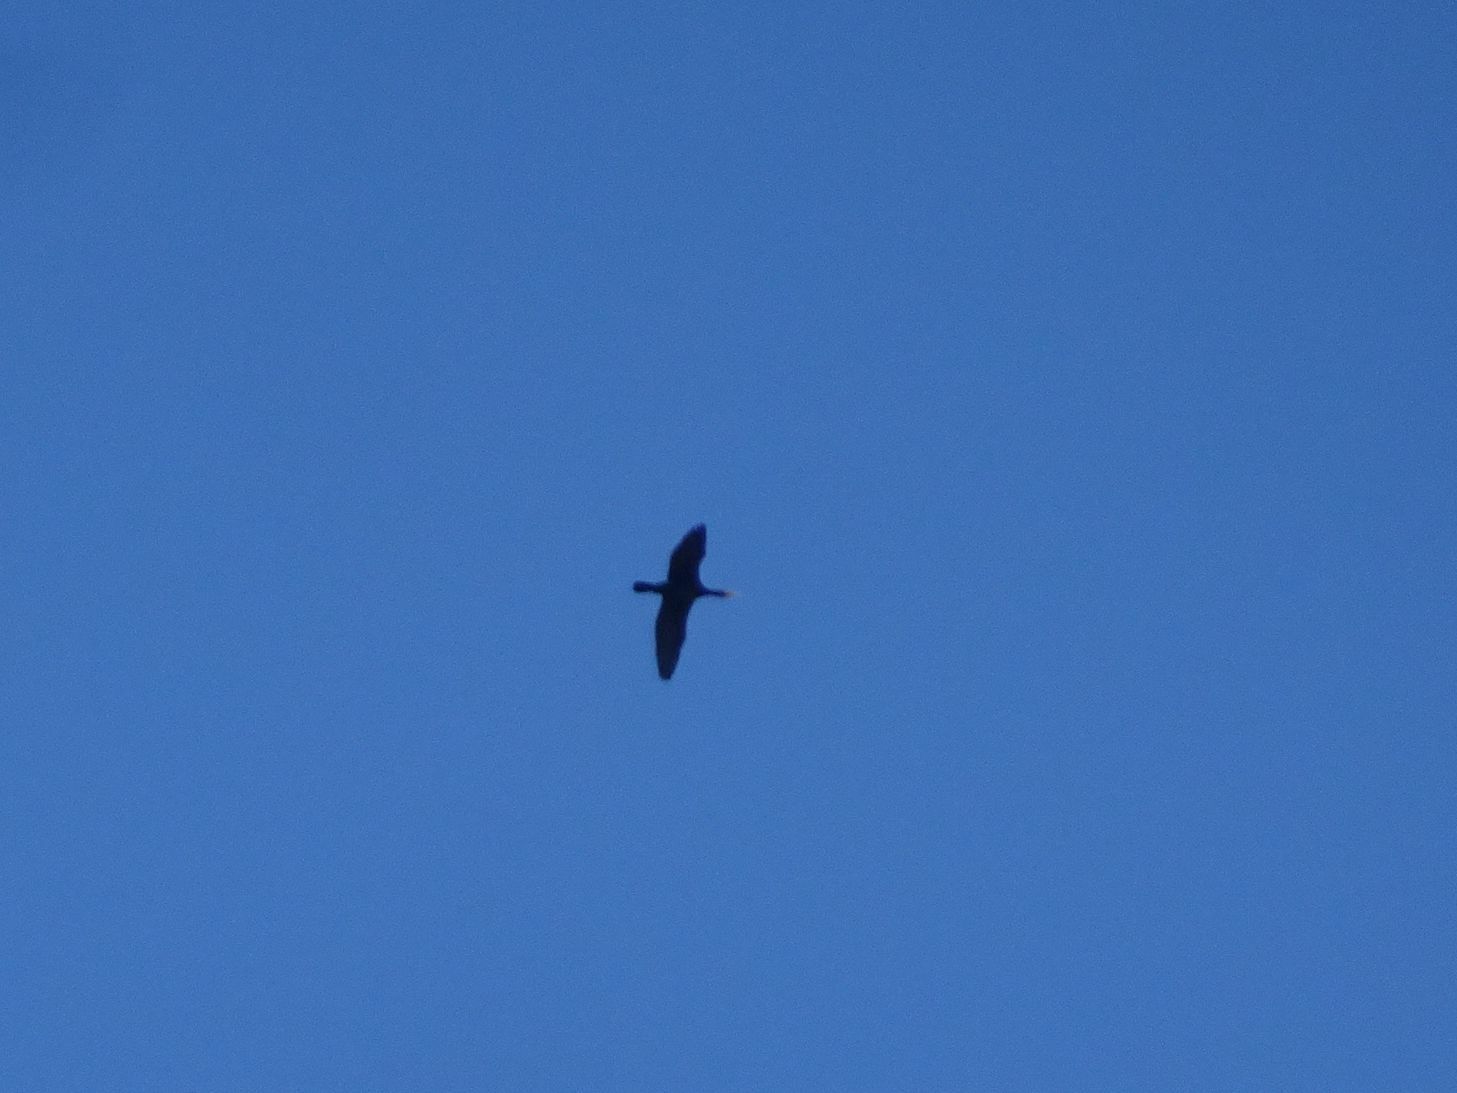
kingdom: Animalia
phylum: Chordata
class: Aves
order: Suliformes
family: Phalacrocoracidae
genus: Phalacrocorax
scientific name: Phalacrocorax carbo
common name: Great cormorant
